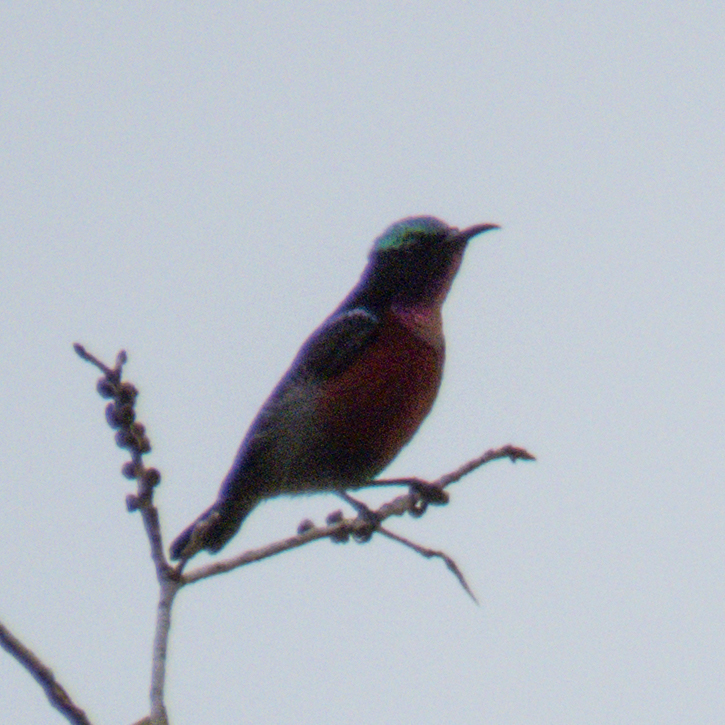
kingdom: Animalia
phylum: Chordata
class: Aves
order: Passeriformes
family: Nectariniidae
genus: Leptocoma
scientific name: Leptocoma brasiliana
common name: Van hasselt's sunbird
